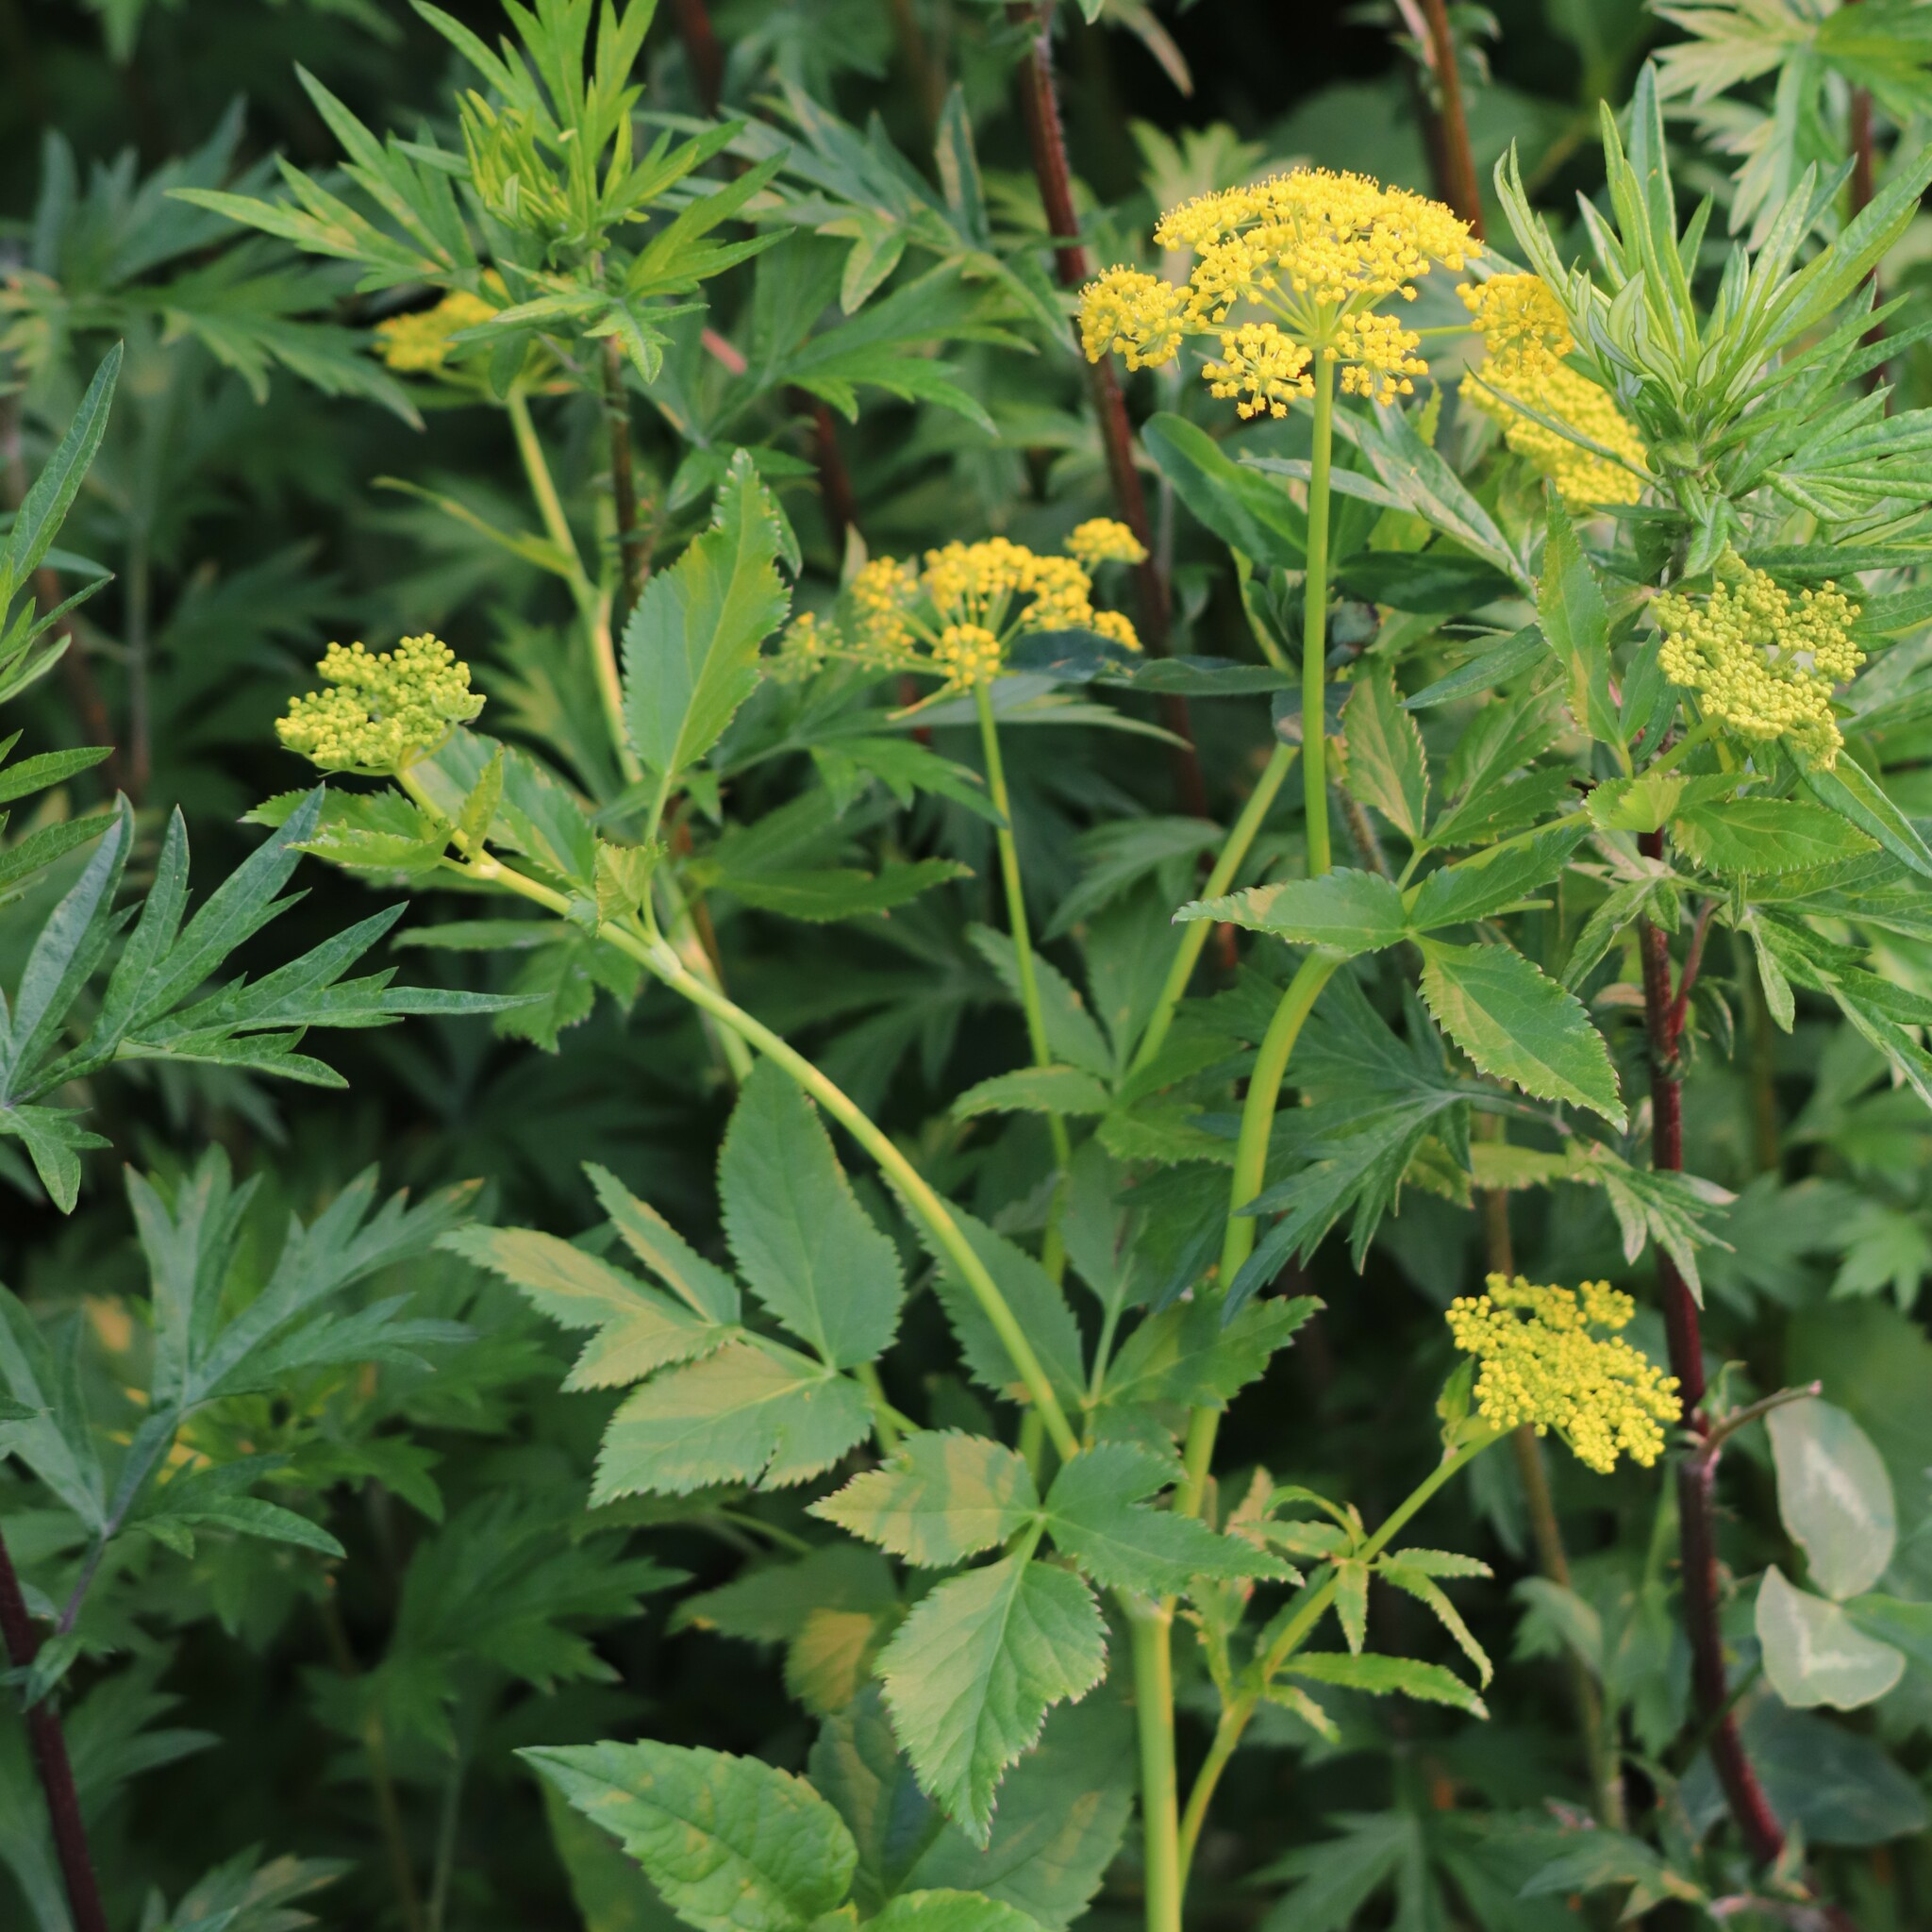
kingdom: Plantae
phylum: Tracheophyta
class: Magnoliopsida
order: Apiales
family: Apiaceae
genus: Zizia
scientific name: Zizia aurea
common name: Golden alexanders
